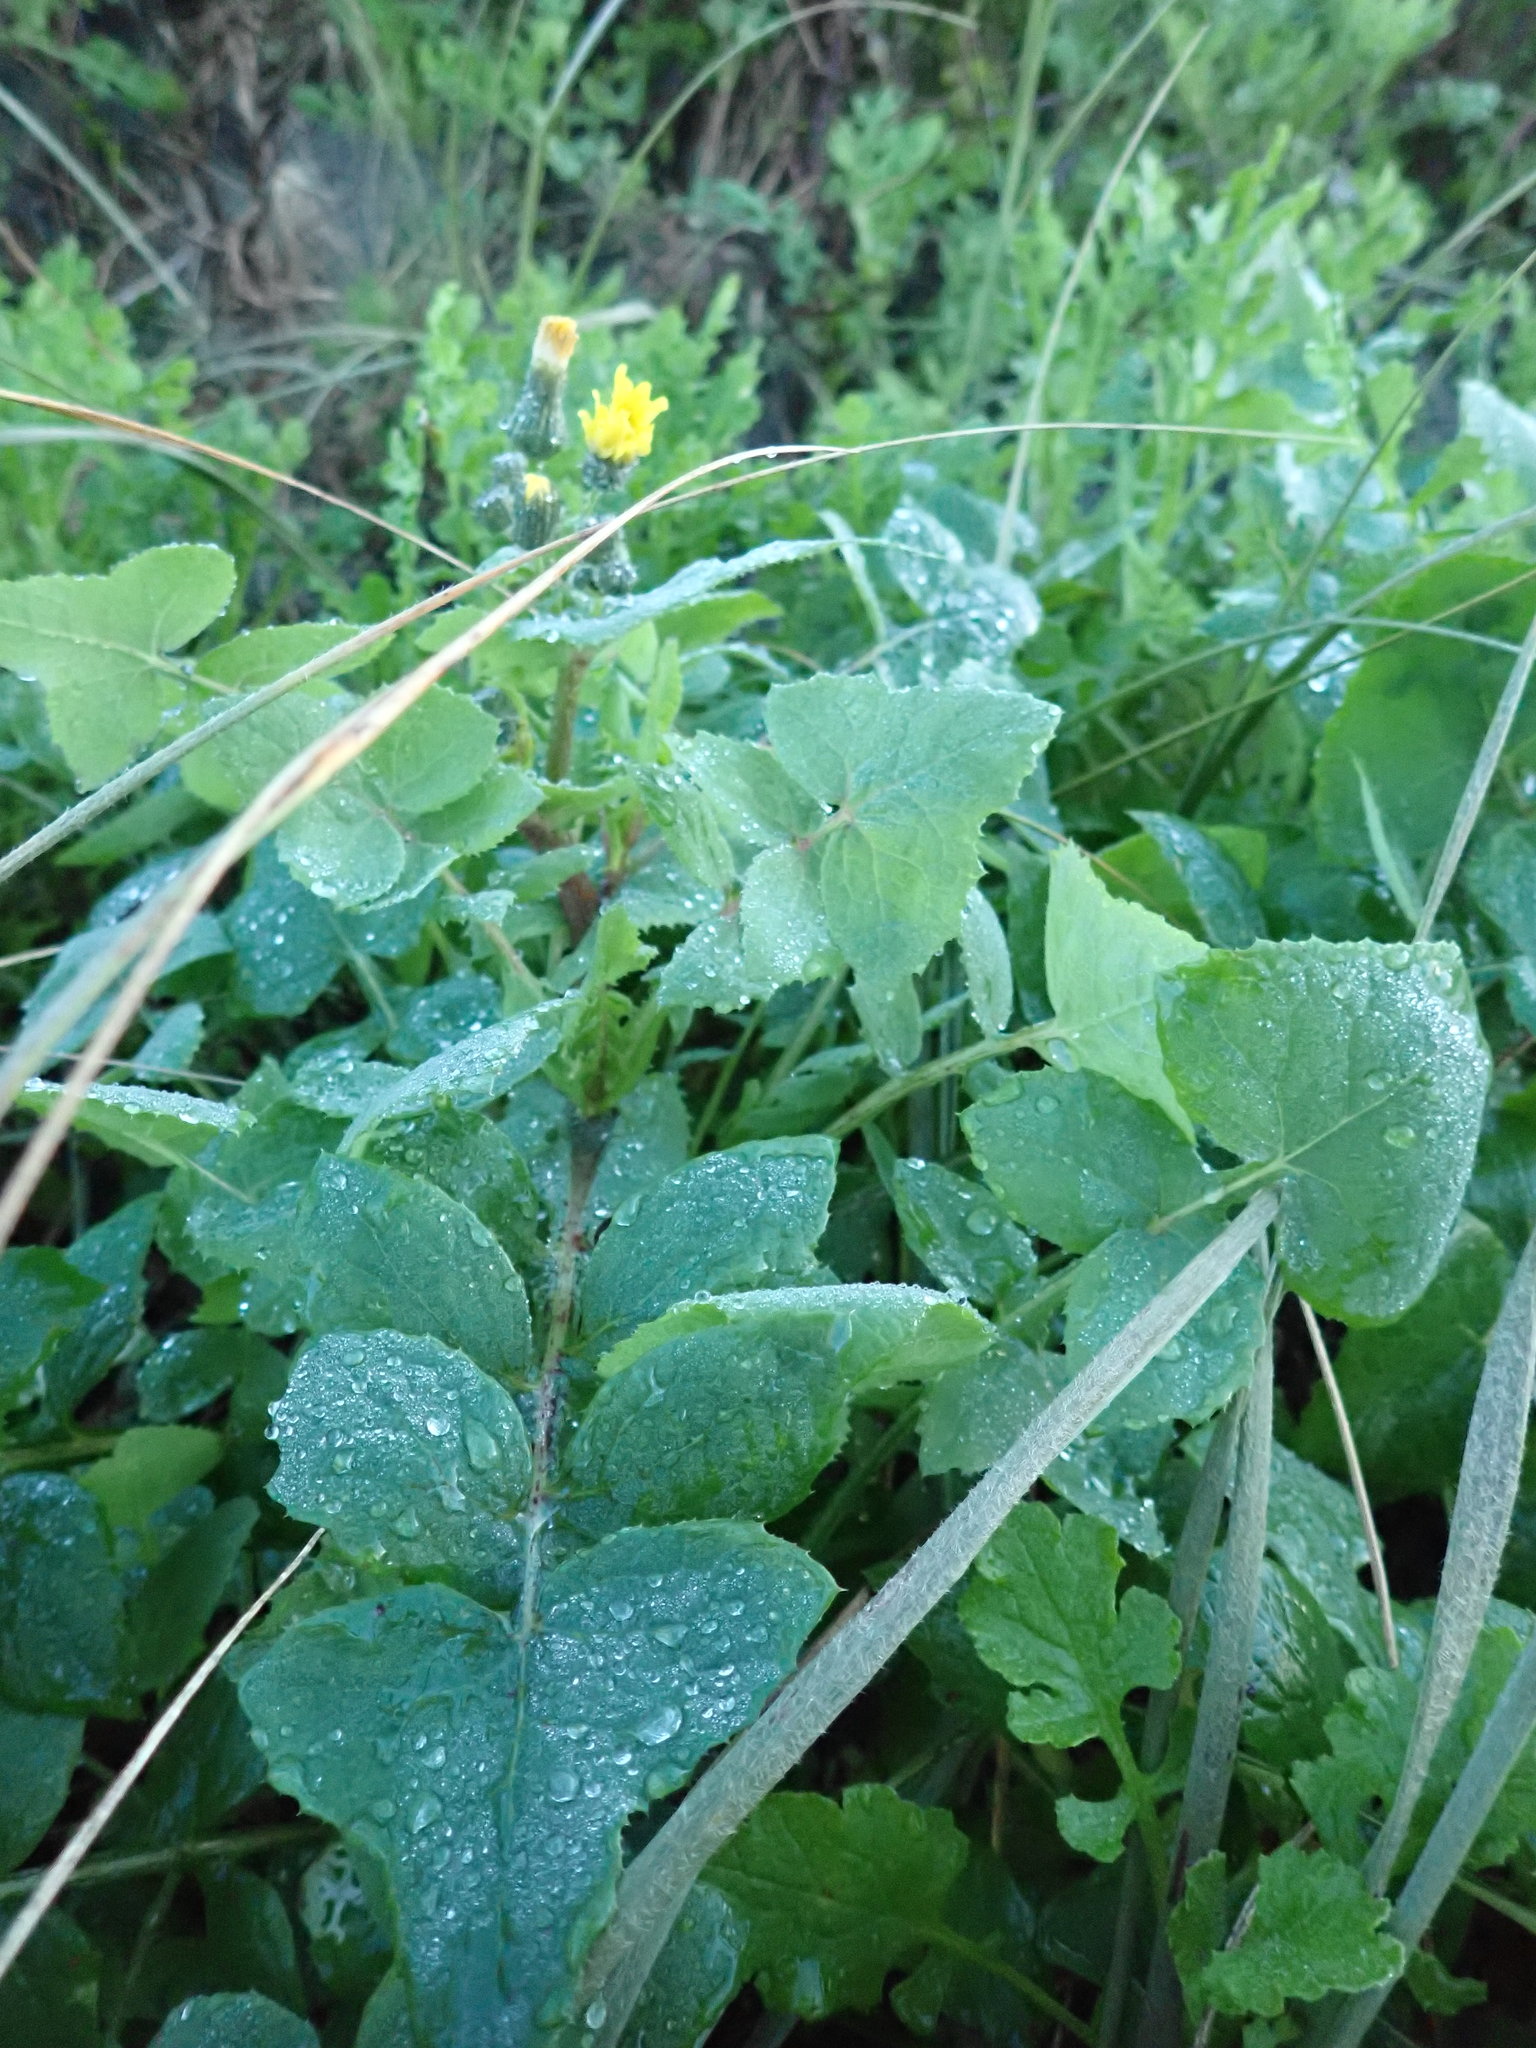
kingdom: Plantae
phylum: Tracheophyta
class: Magnoliopsida
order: Asterales
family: Asteraceae
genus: Sonchus
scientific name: Sonchus oleraceus
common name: Common sowthistle
